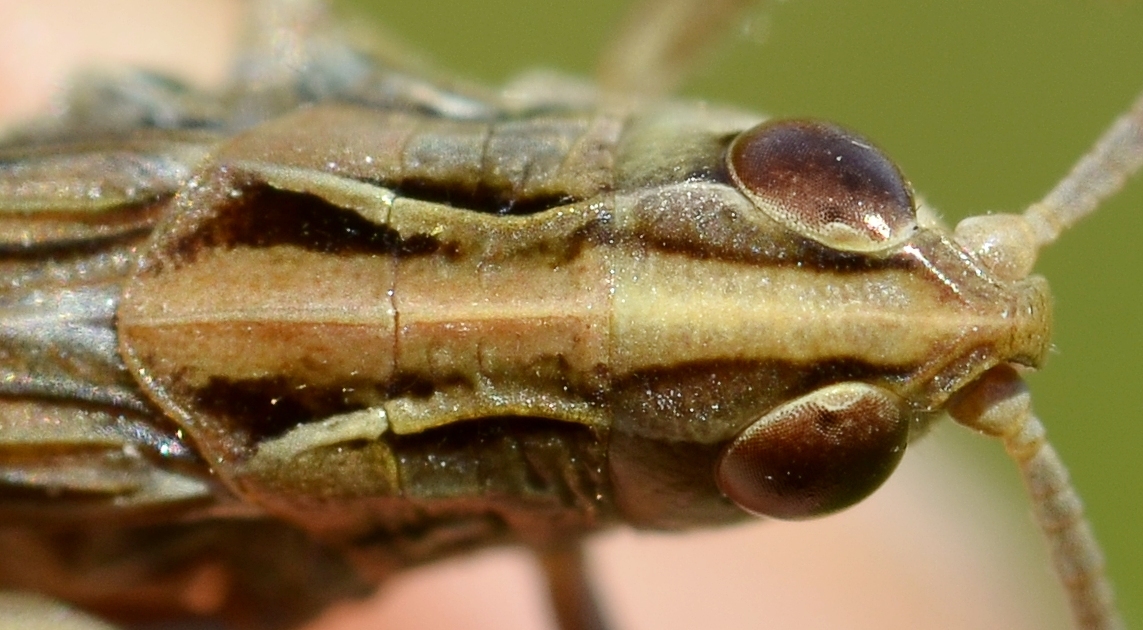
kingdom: Animalia
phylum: Arthropoda
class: Insecta
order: Orthoptera
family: Acrididae
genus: Stenobothrus
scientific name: Stenobothrus stigmaticus
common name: Lesser mottled grasshopper
